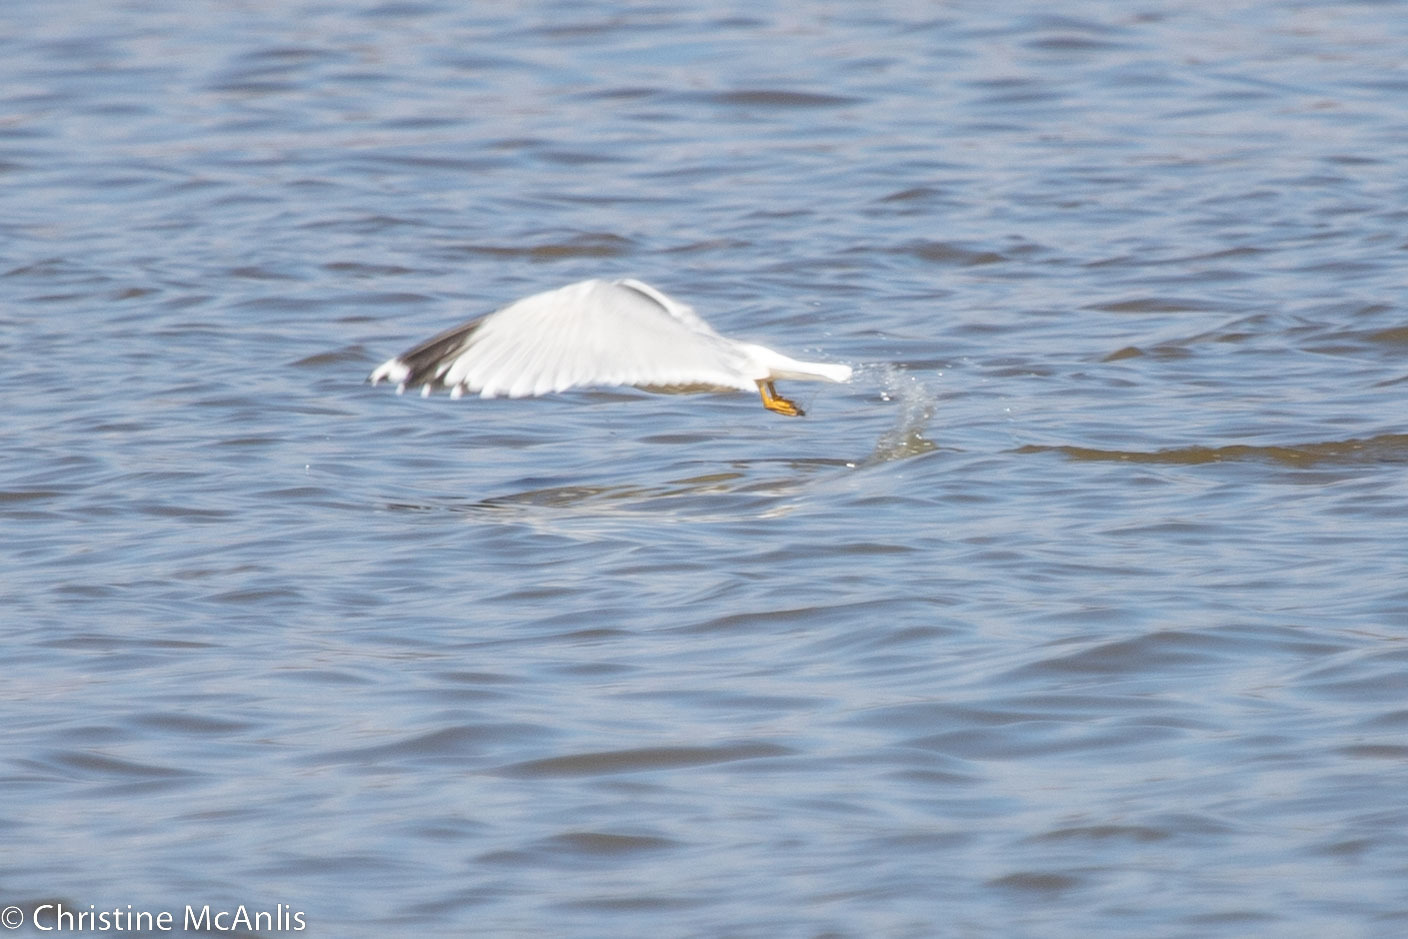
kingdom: Animalia
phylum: Chordata
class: Aves
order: Charadriiformes
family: Laridae
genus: Larus
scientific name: Larus delawarensis
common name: Ring-billed gull
